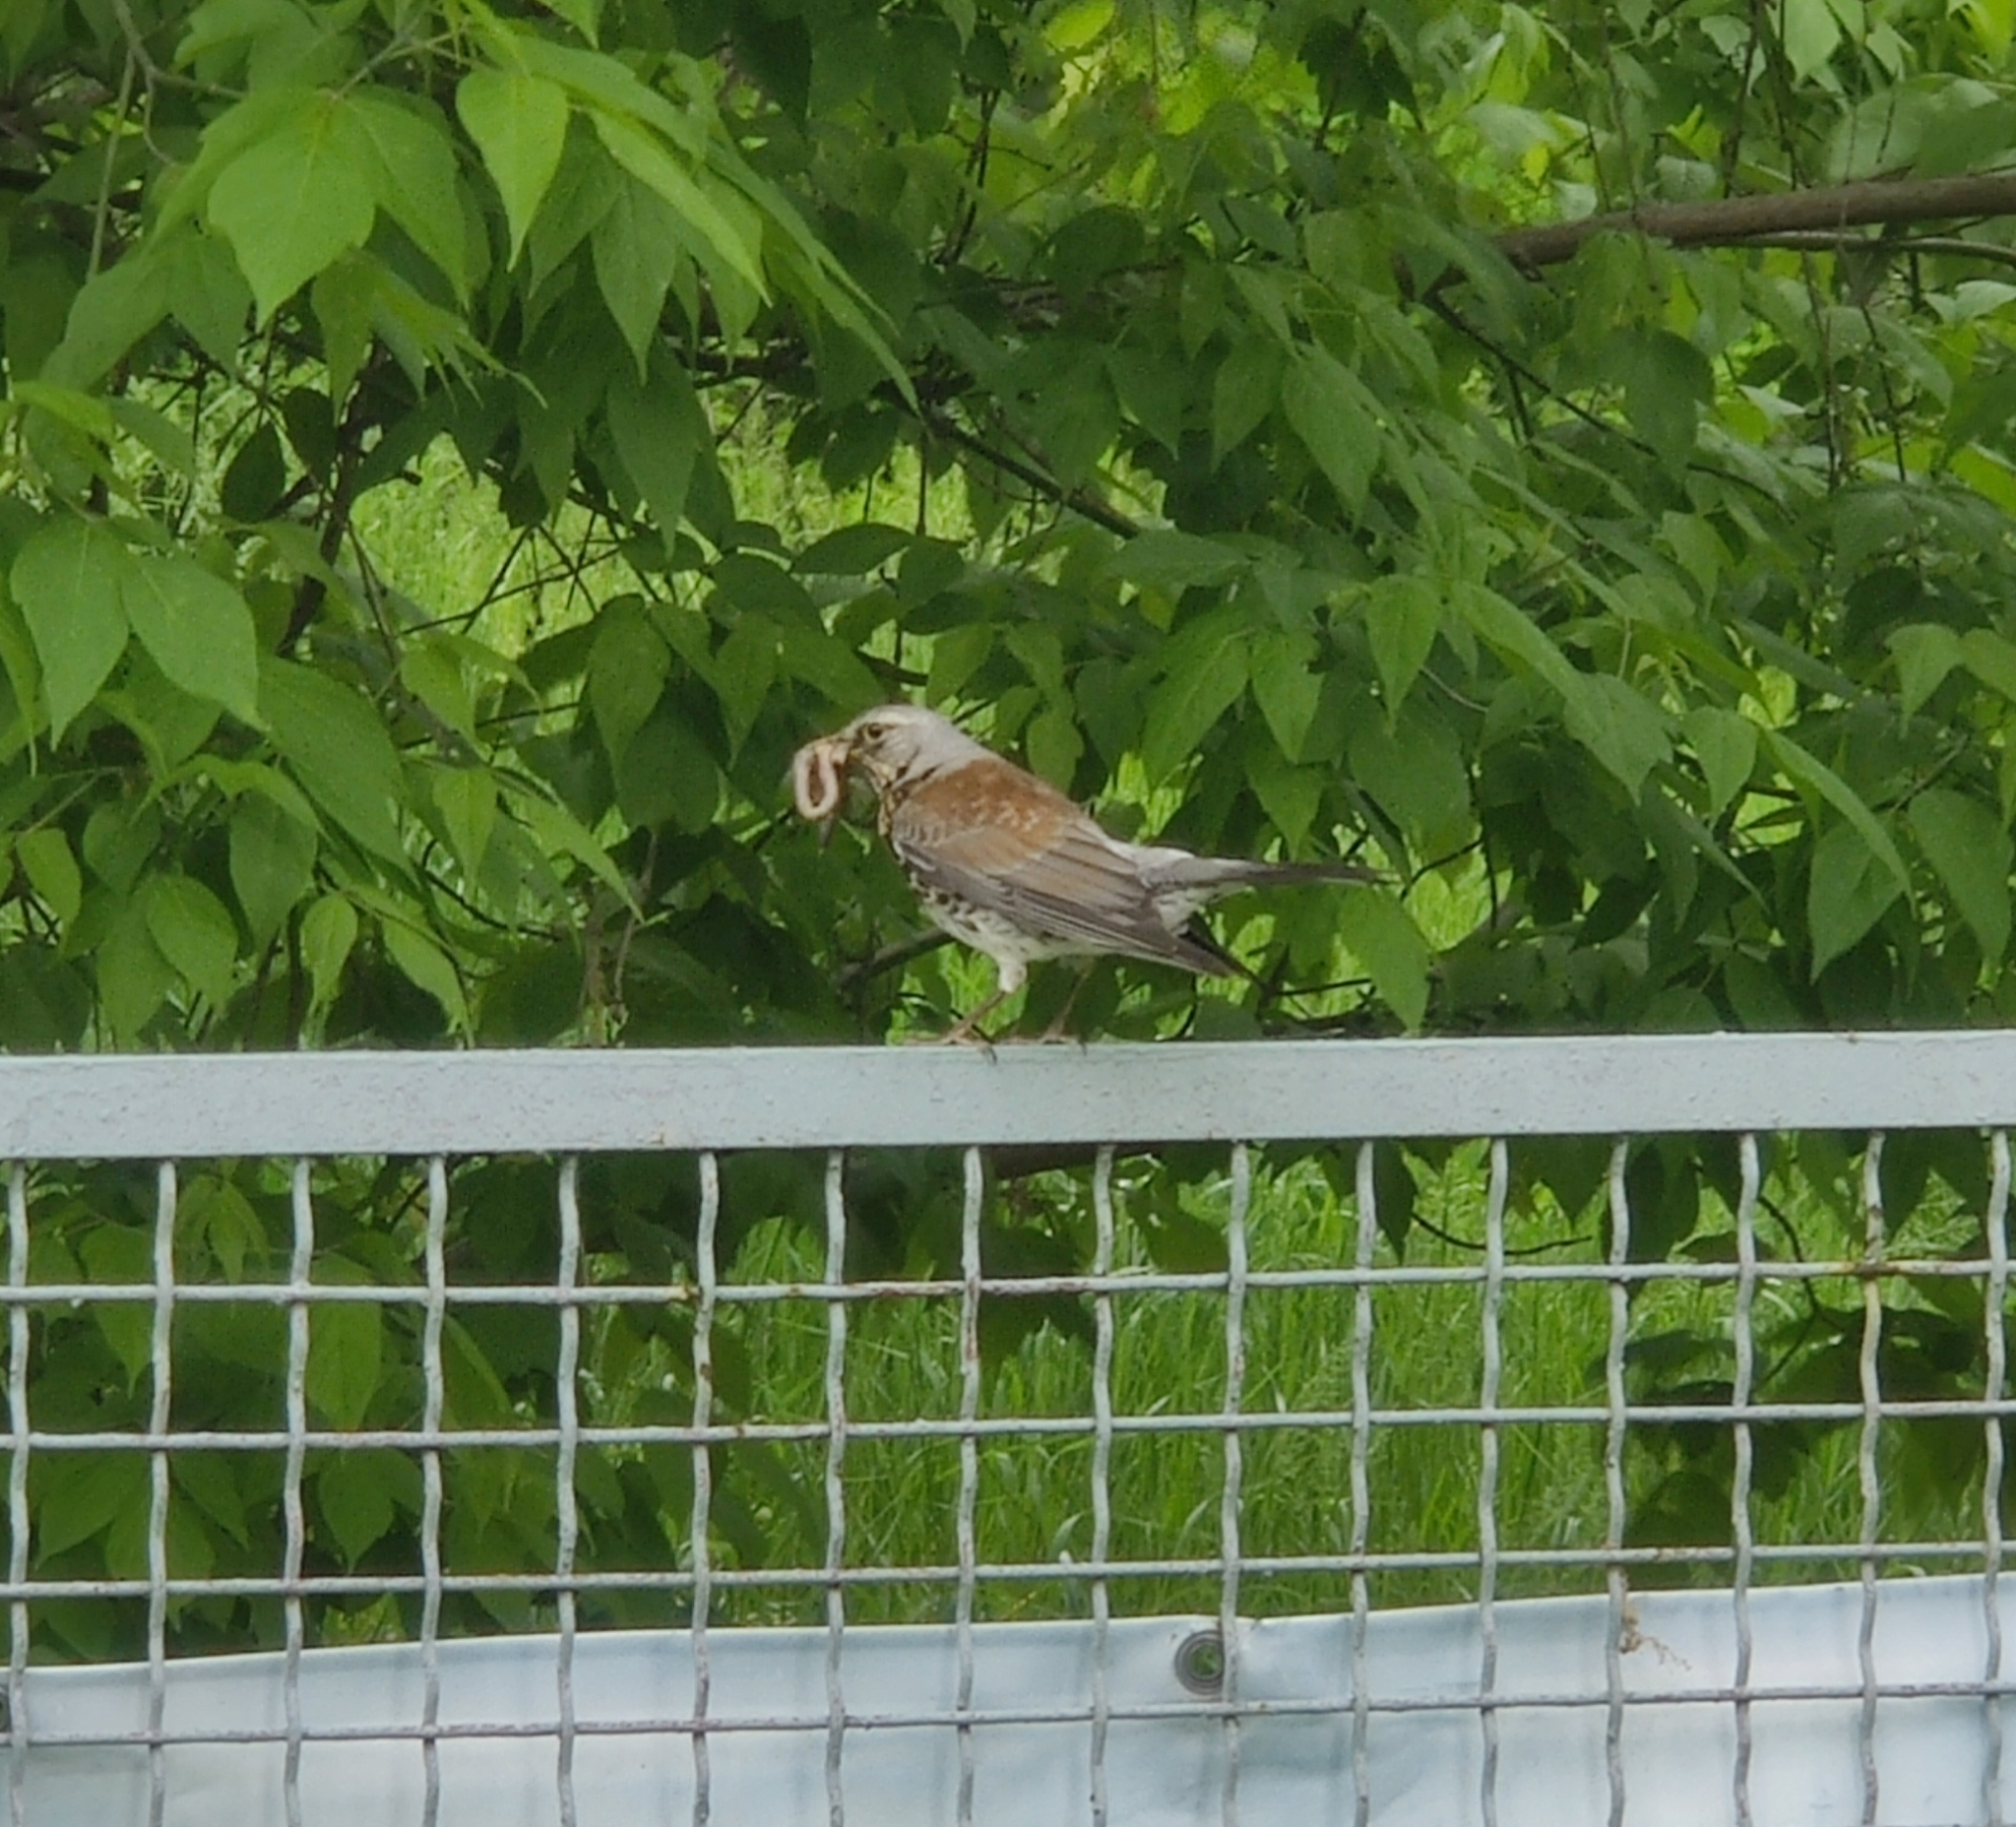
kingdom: Animalia
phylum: Chordata
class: Aves
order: Passeriformes
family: Turdidae
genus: Turdus
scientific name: Turdus pilaris
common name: Fieldfare
